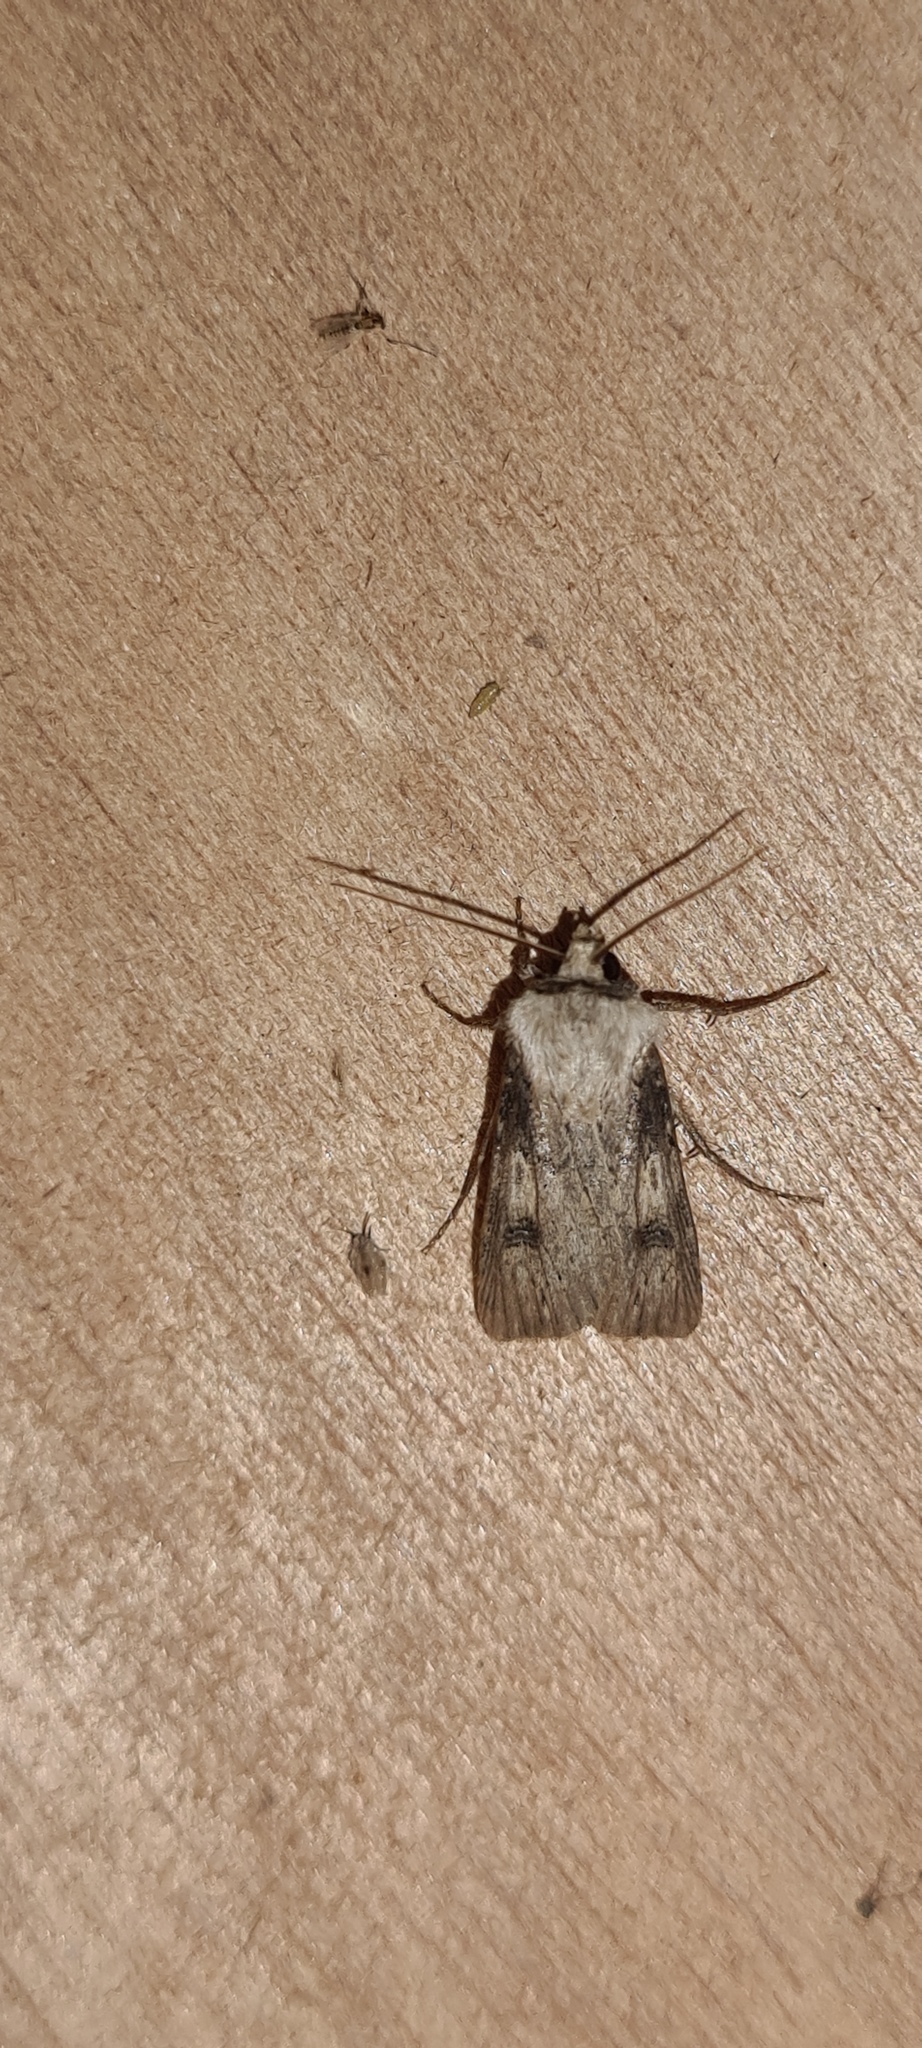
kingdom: Animalia
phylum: Arthropoda
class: Insecta
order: Lepidoptera
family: Noctuidae
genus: Agrotis
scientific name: Agrotis puta
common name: Shuttle-shaped dart
